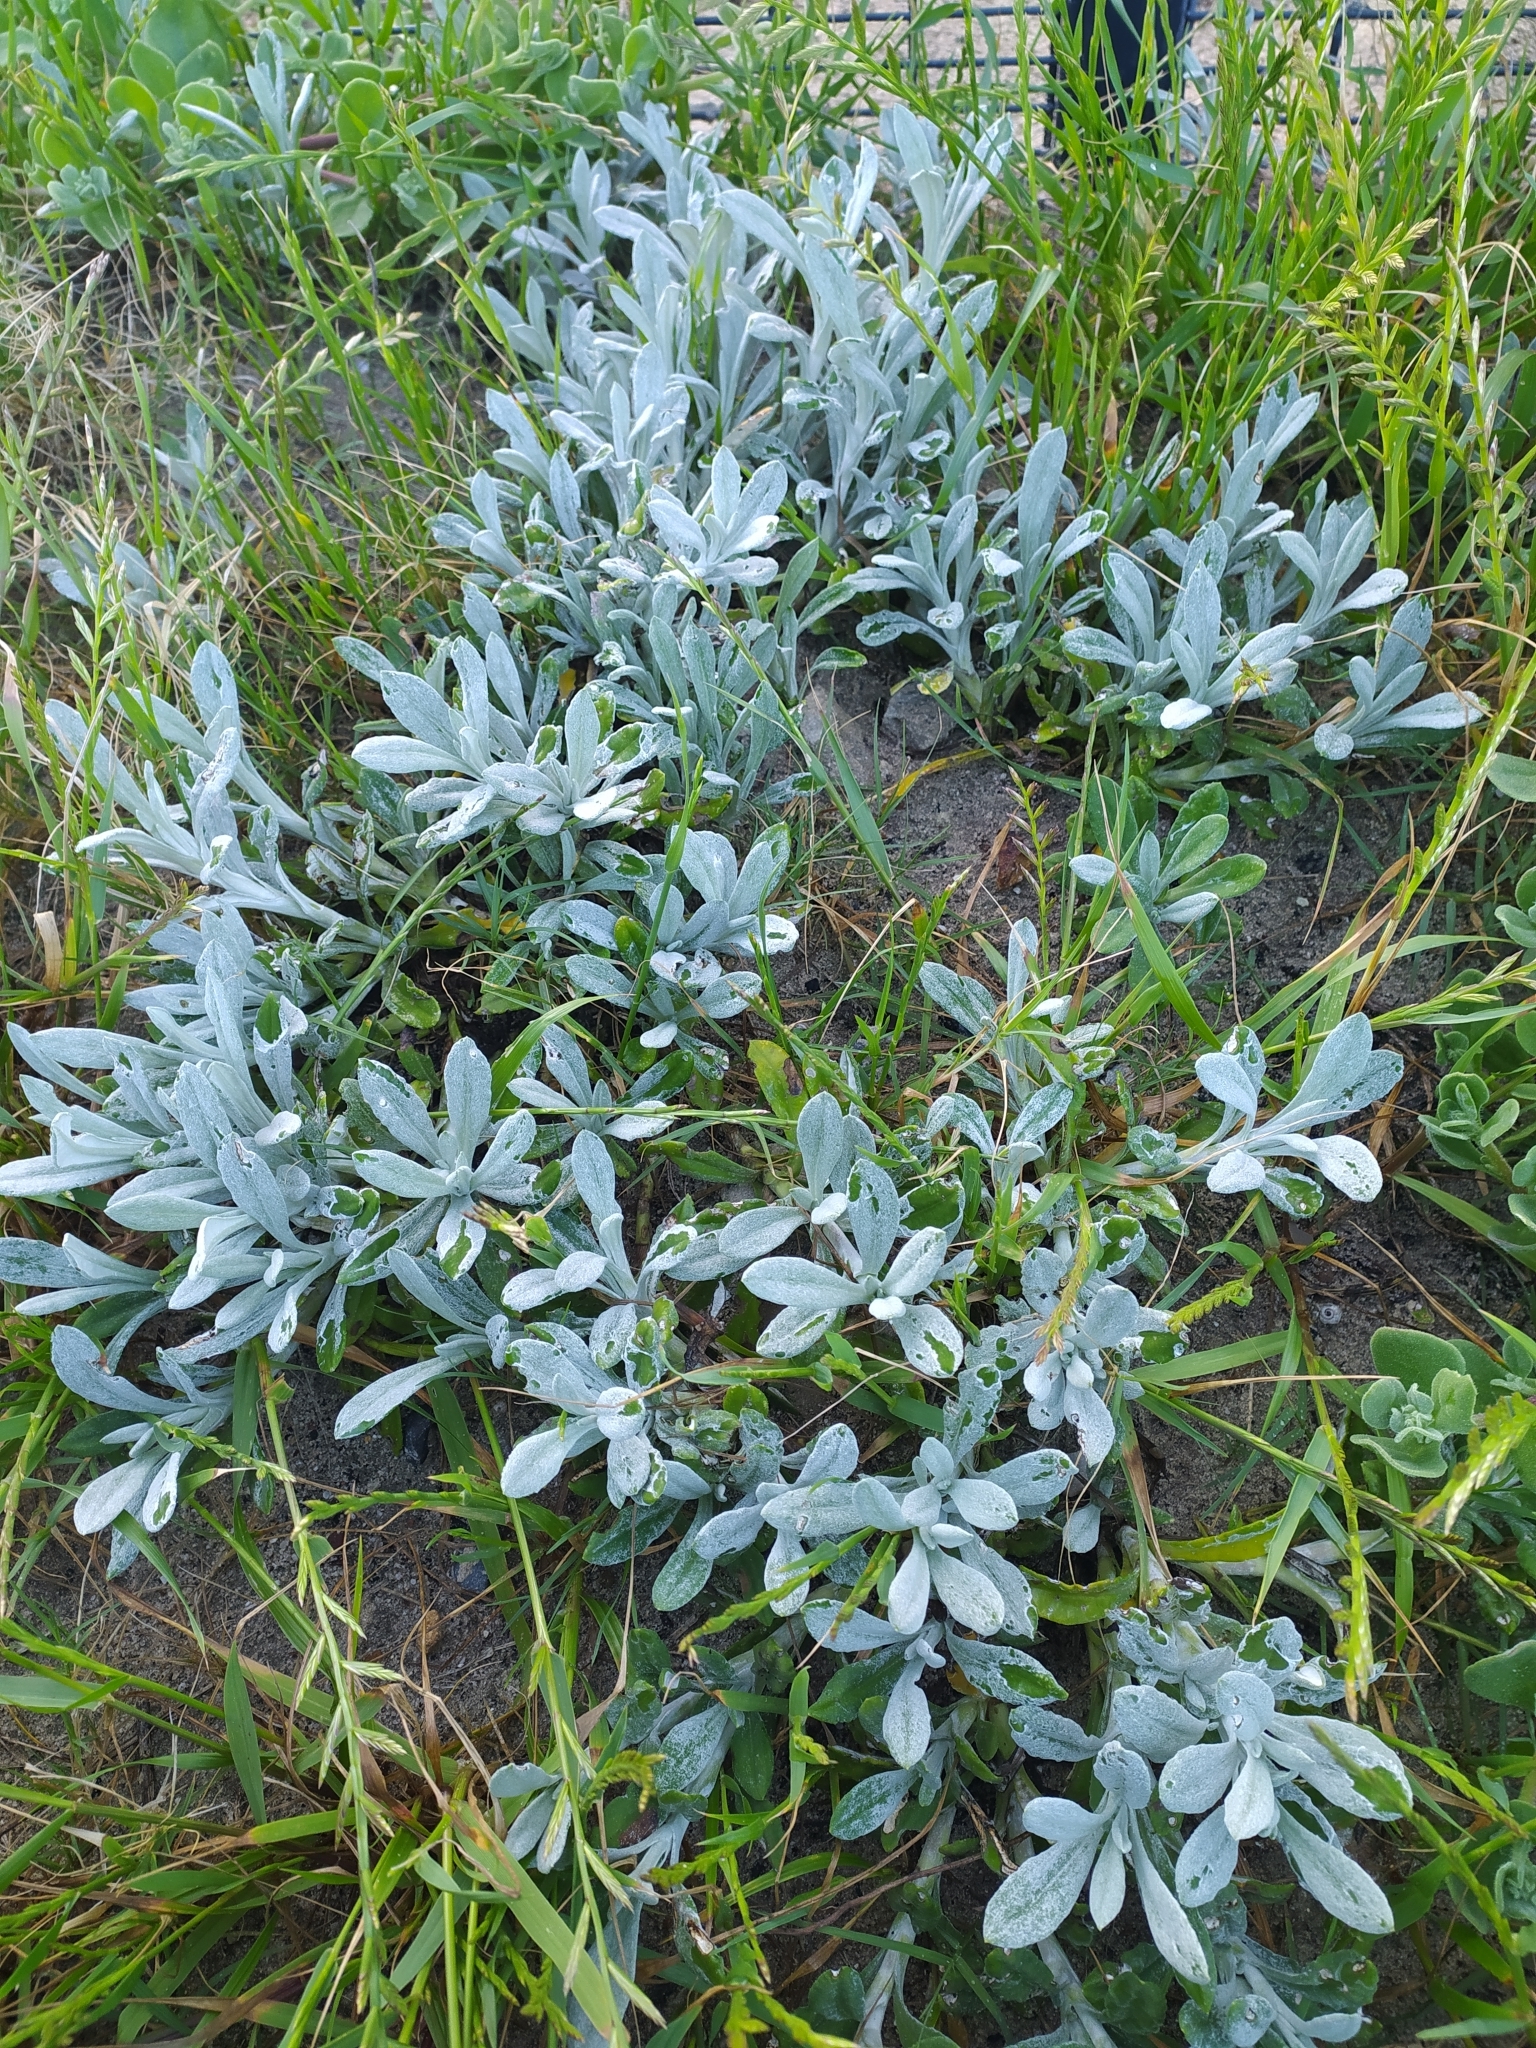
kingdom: Plantae
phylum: Tracheophyta
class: Magnoliopsida
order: Asterales
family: Asteraceae
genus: Gazania
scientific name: Gazania rigens
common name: Treasureflower
